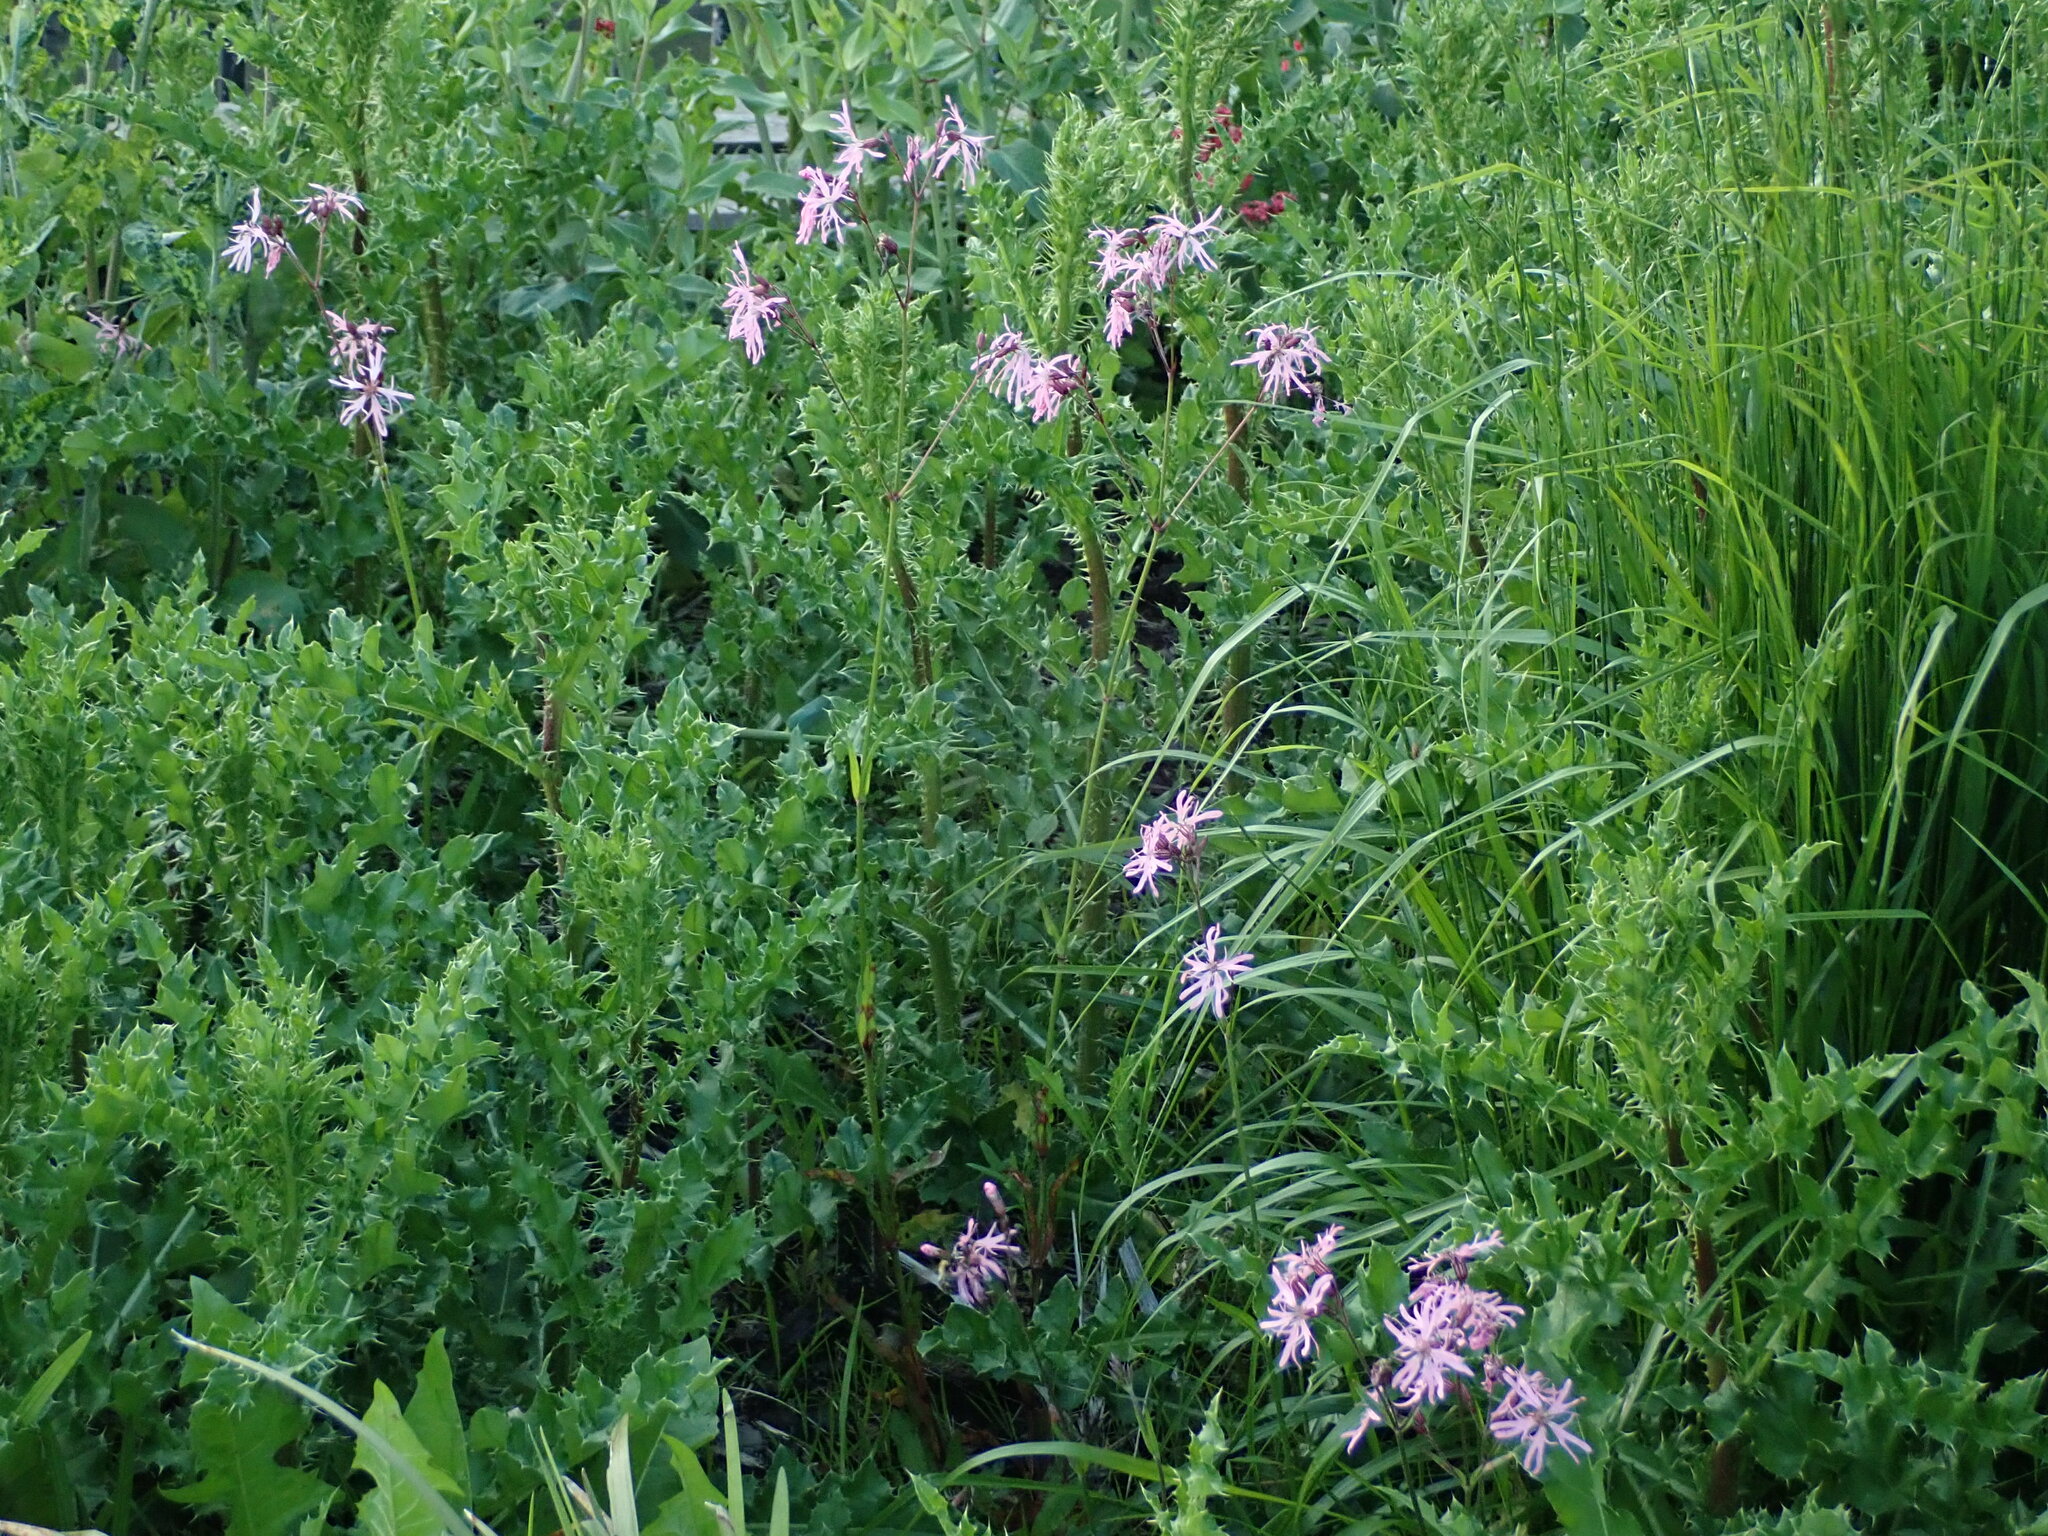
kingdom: Plantae
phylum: Tracheophyta
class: Magnoliopsida
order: Caryophyllales
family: Caryophyllaceae
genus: Silene
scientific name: Silene flos-cuculi
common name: Ragged-robin
